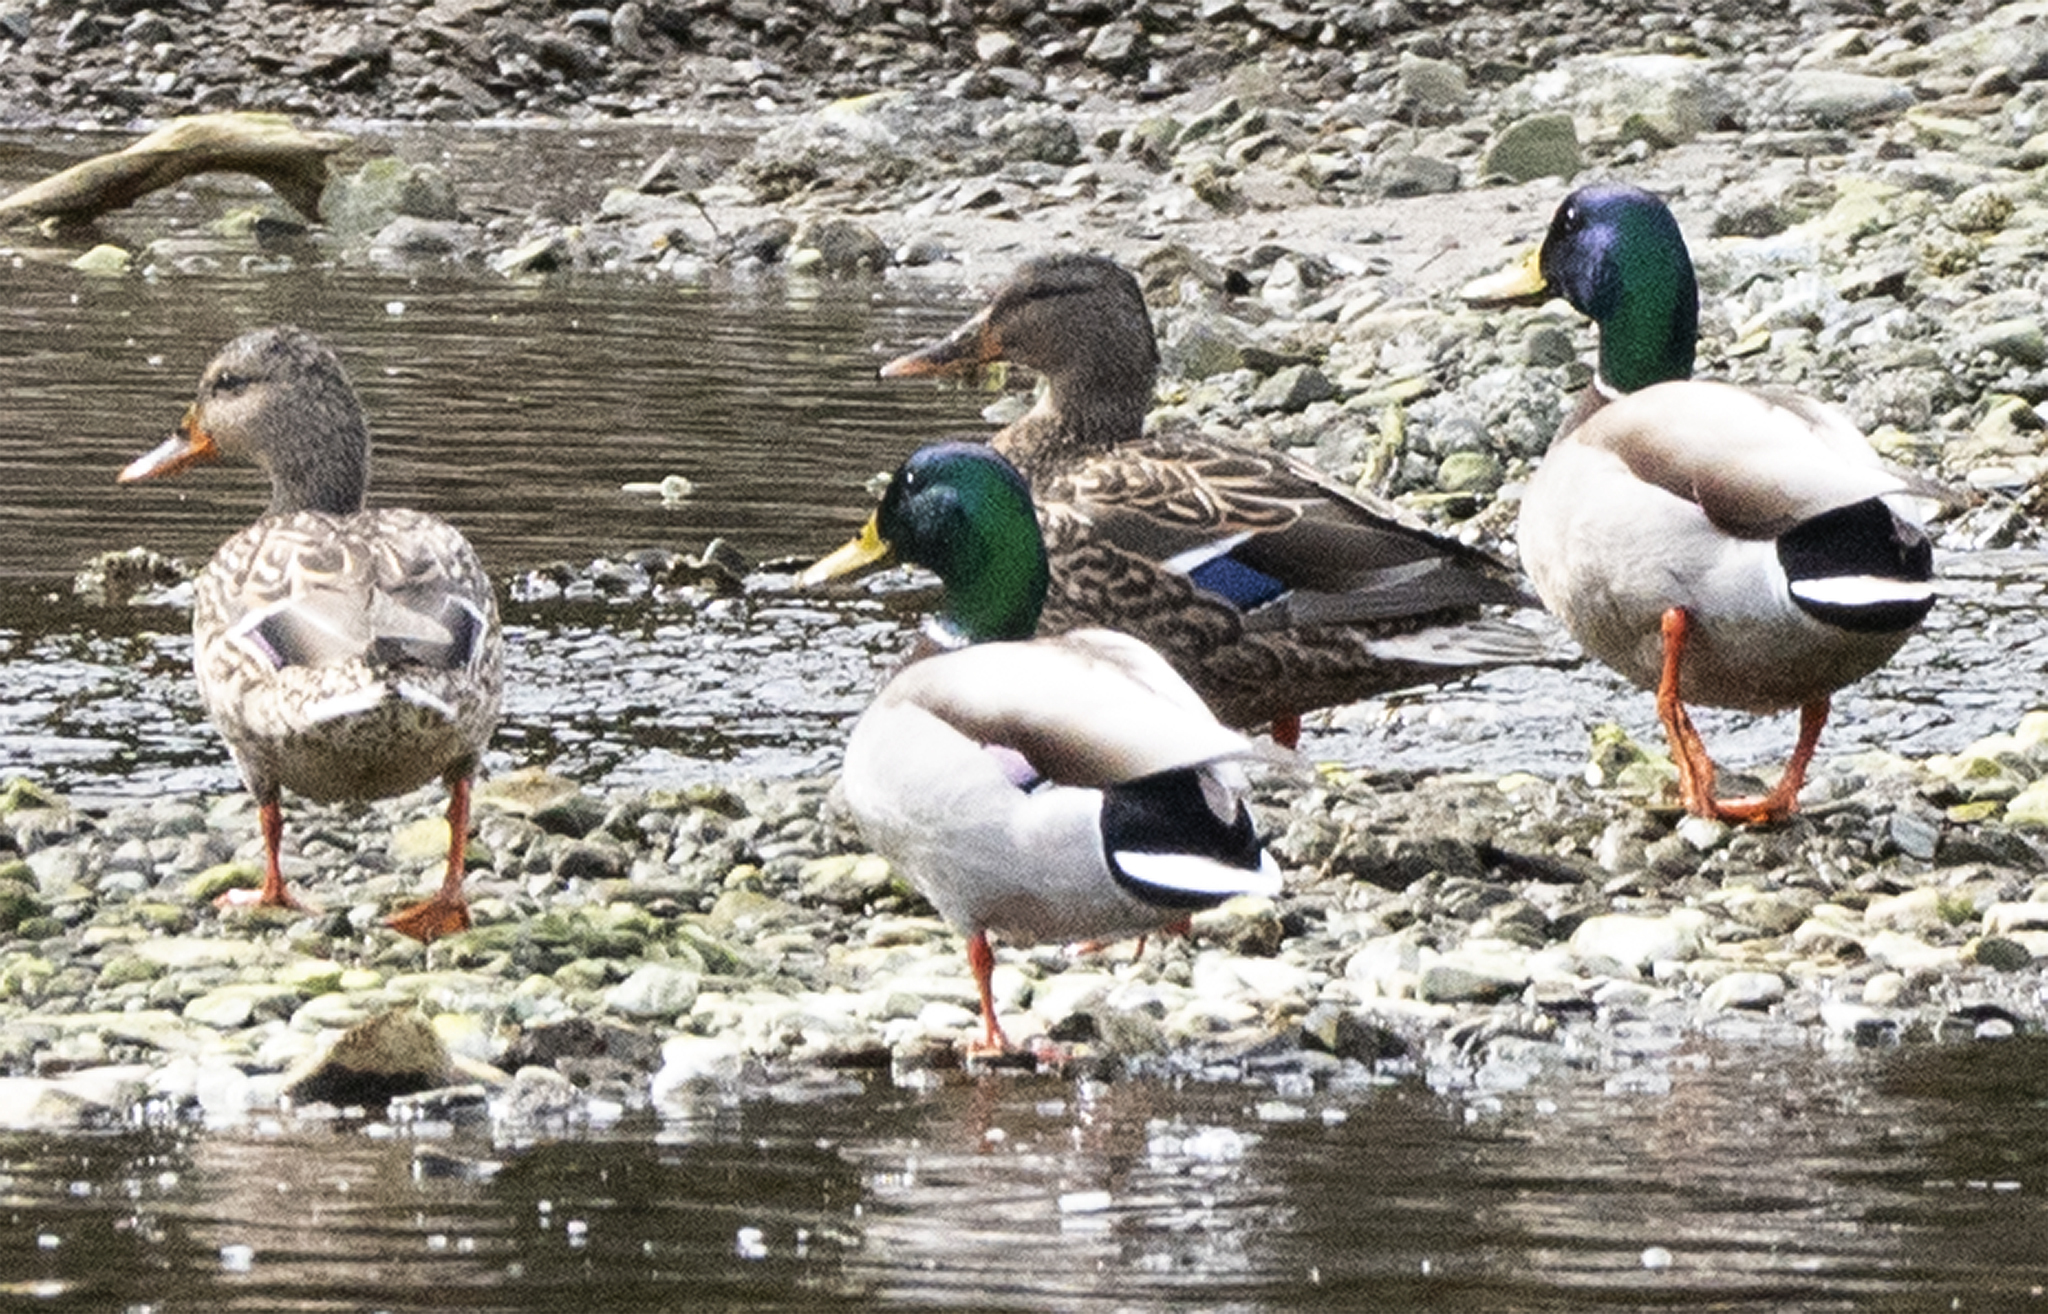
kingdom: Animalia
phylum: Chordata
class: Aves
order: Anseriformes
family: Anatidae
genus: Anas
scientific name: Anas platyrhynchos
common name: Mallard
